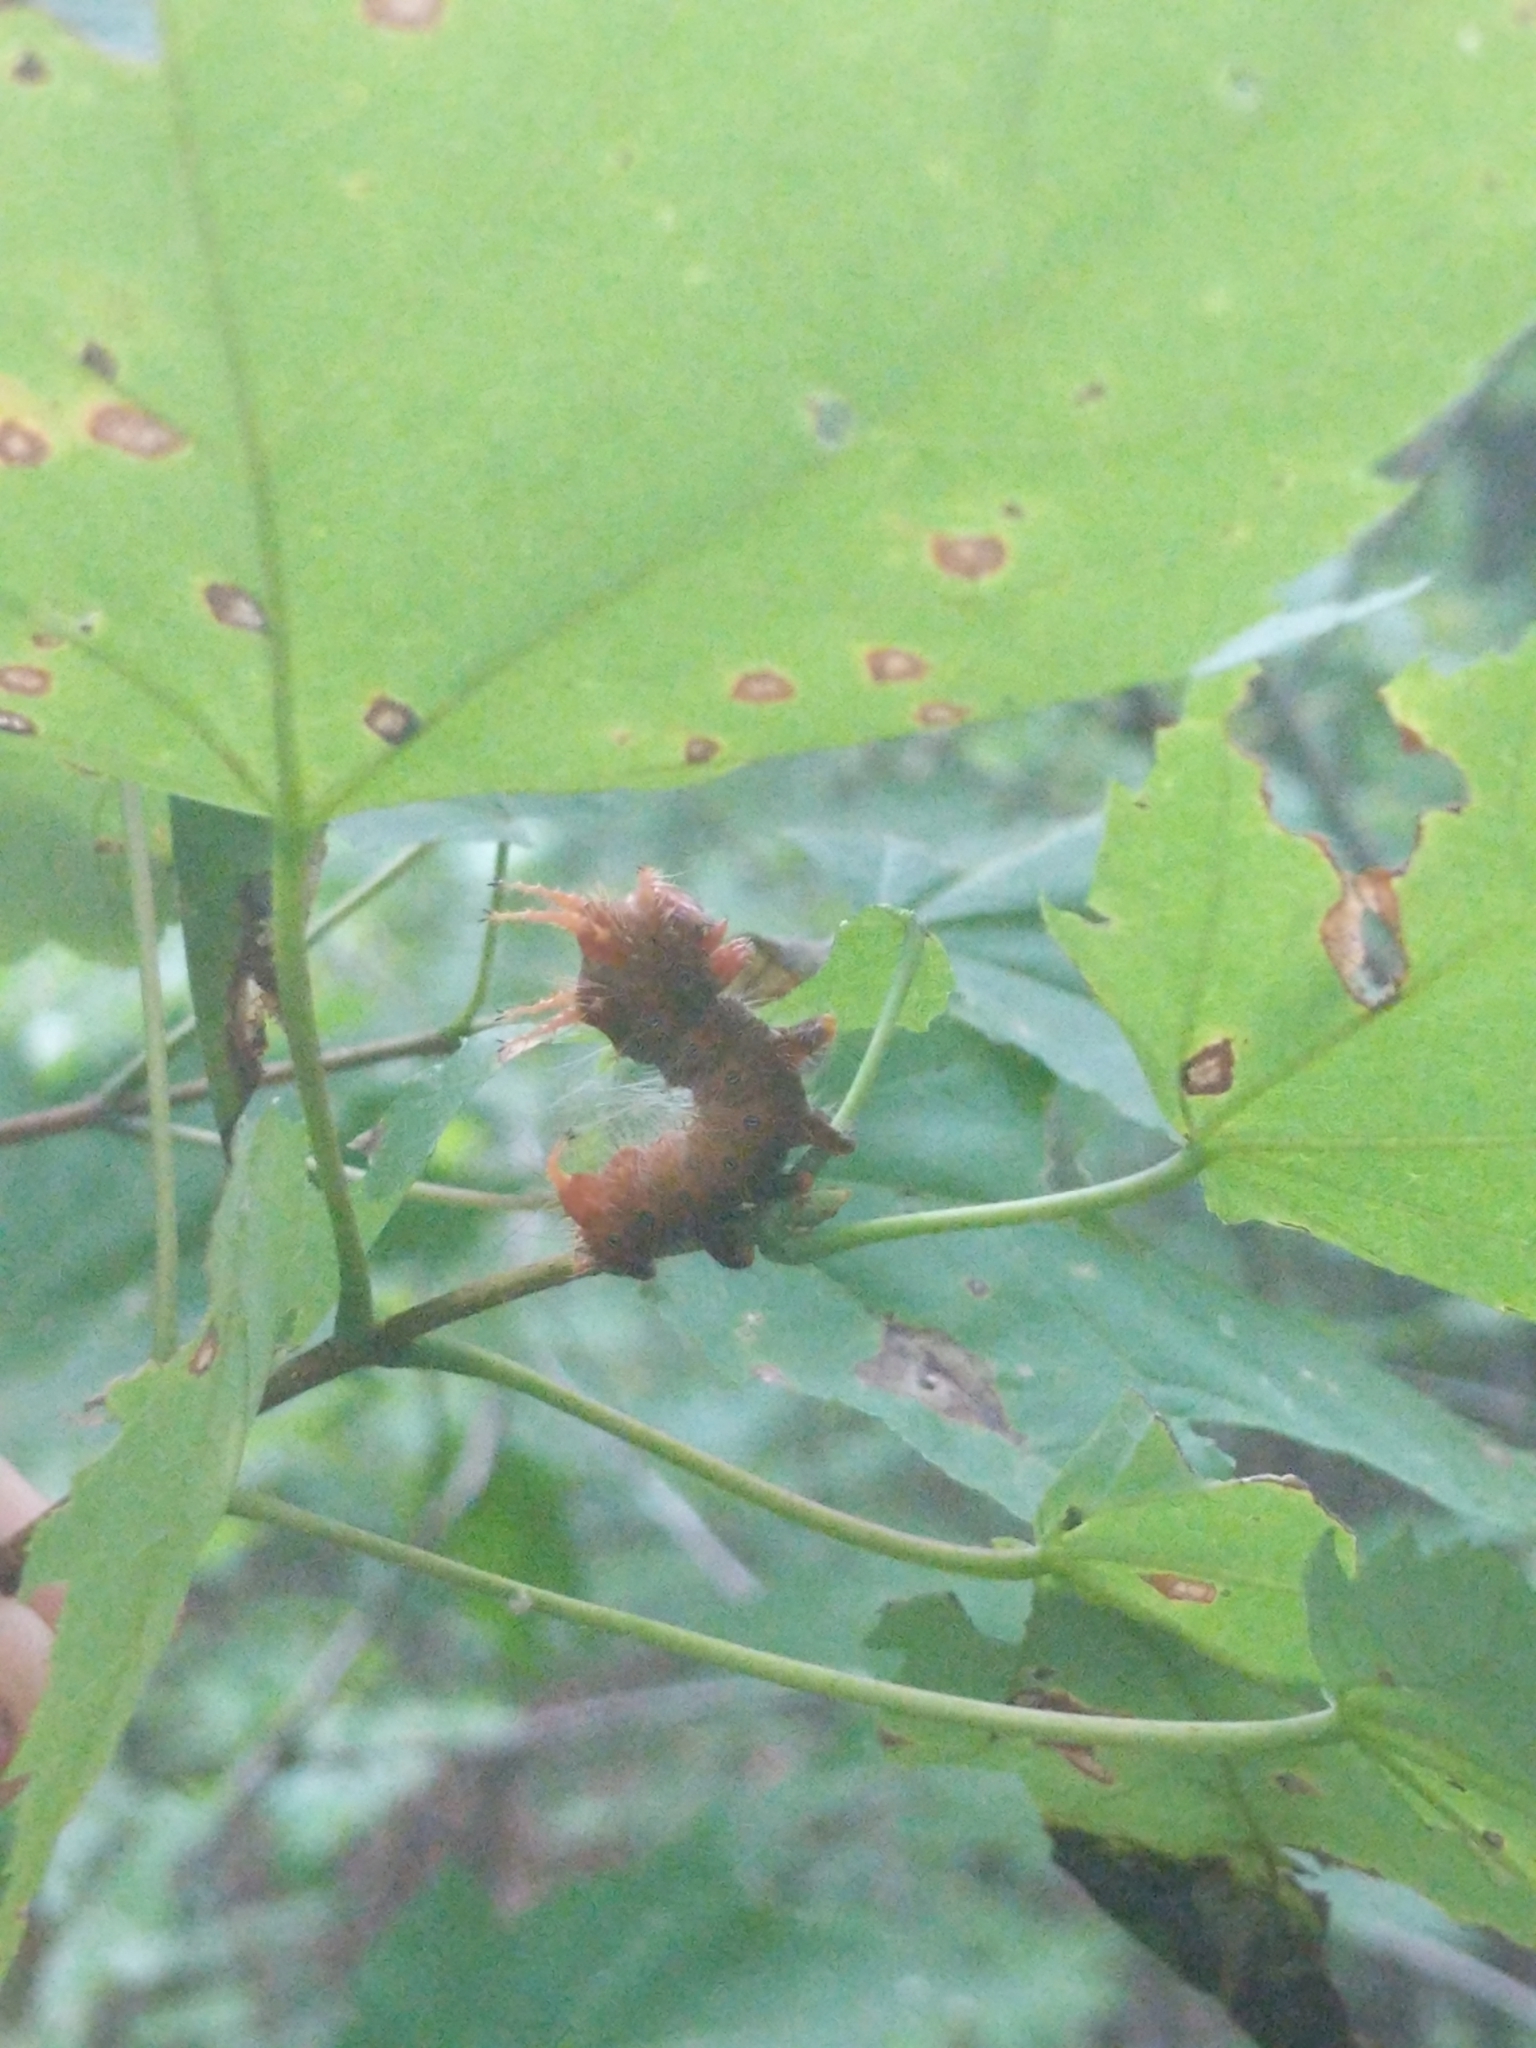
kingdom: Animalia
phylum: Arthropoda
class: Insecta
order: Lepidoptera
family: Saturniidae
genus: Eacles
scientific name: Eacles imperialis
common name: Imperial moth
